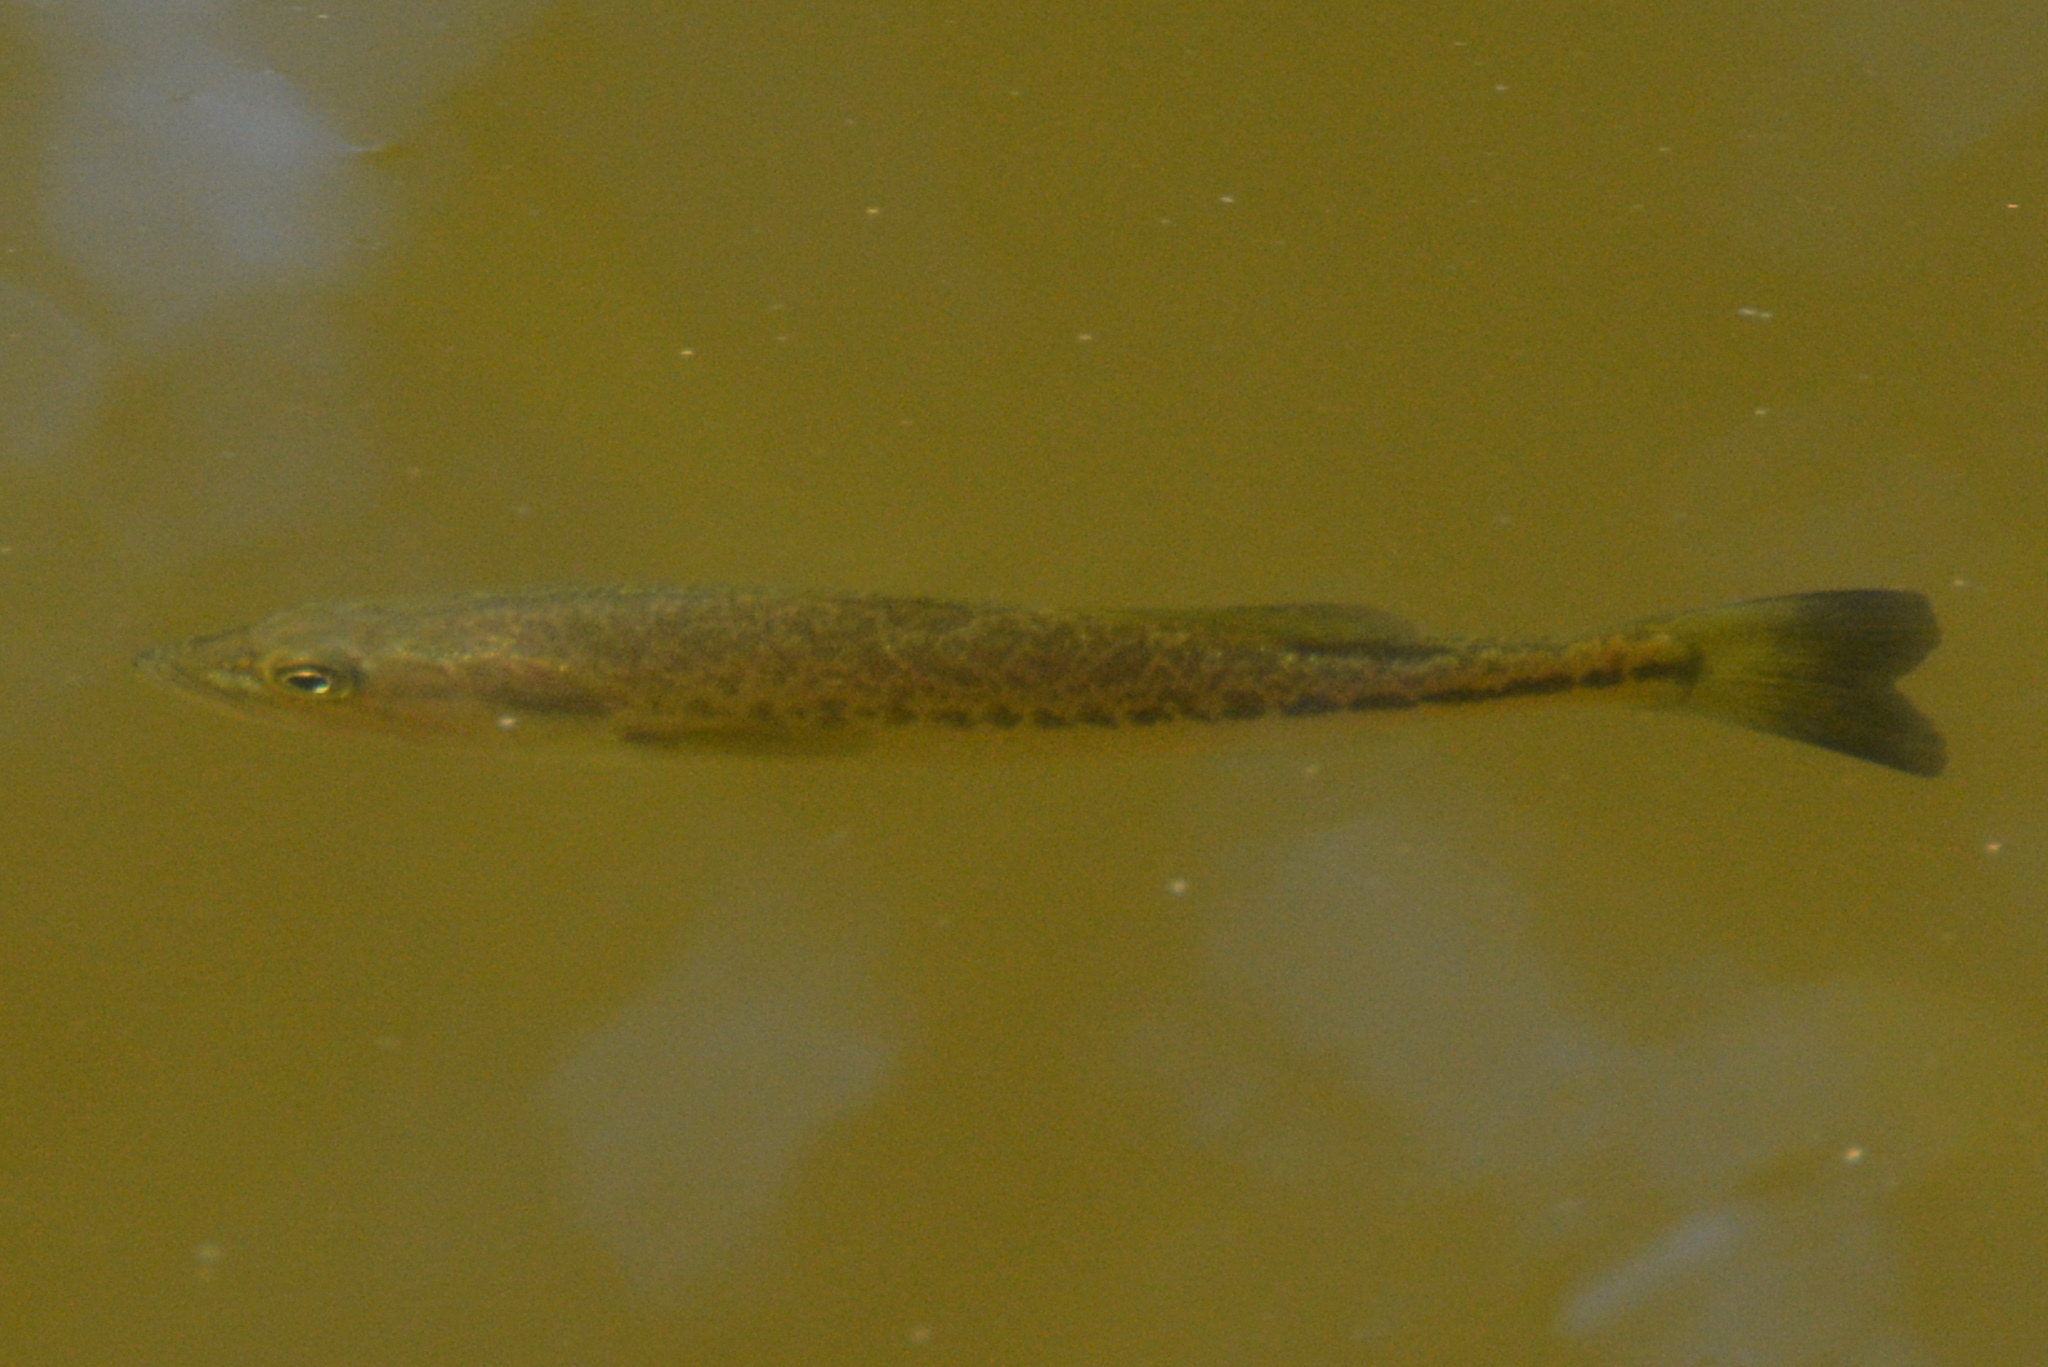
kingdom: Animalia
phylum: Chordata
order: Perciformes
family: Centrarchidae
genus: Micropterus
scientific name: Micropterus punctulatus
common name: Spotted bass
